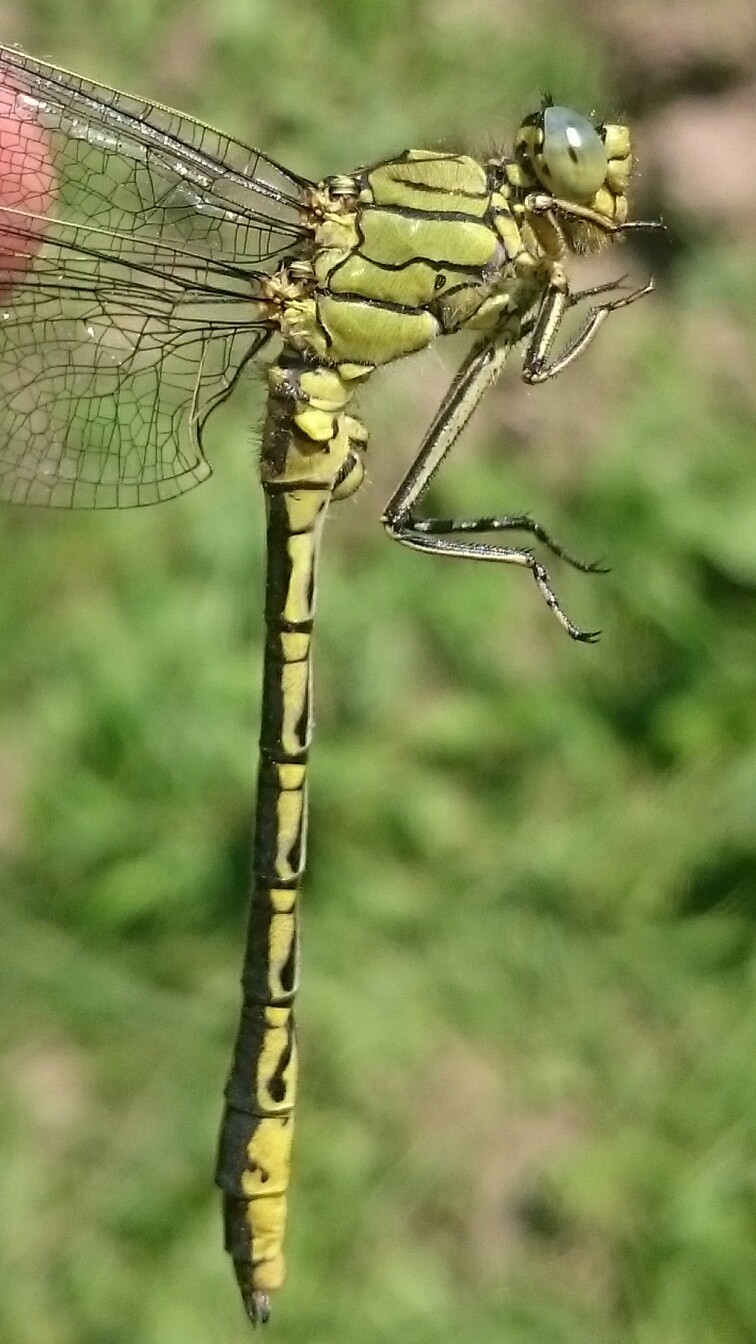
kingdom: Animalia
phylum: Arthropoda
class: Insecta
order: Odonata
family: Gomphidae
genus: Gomphus
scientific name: Gomphus pulchellus
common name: Western clubtail
